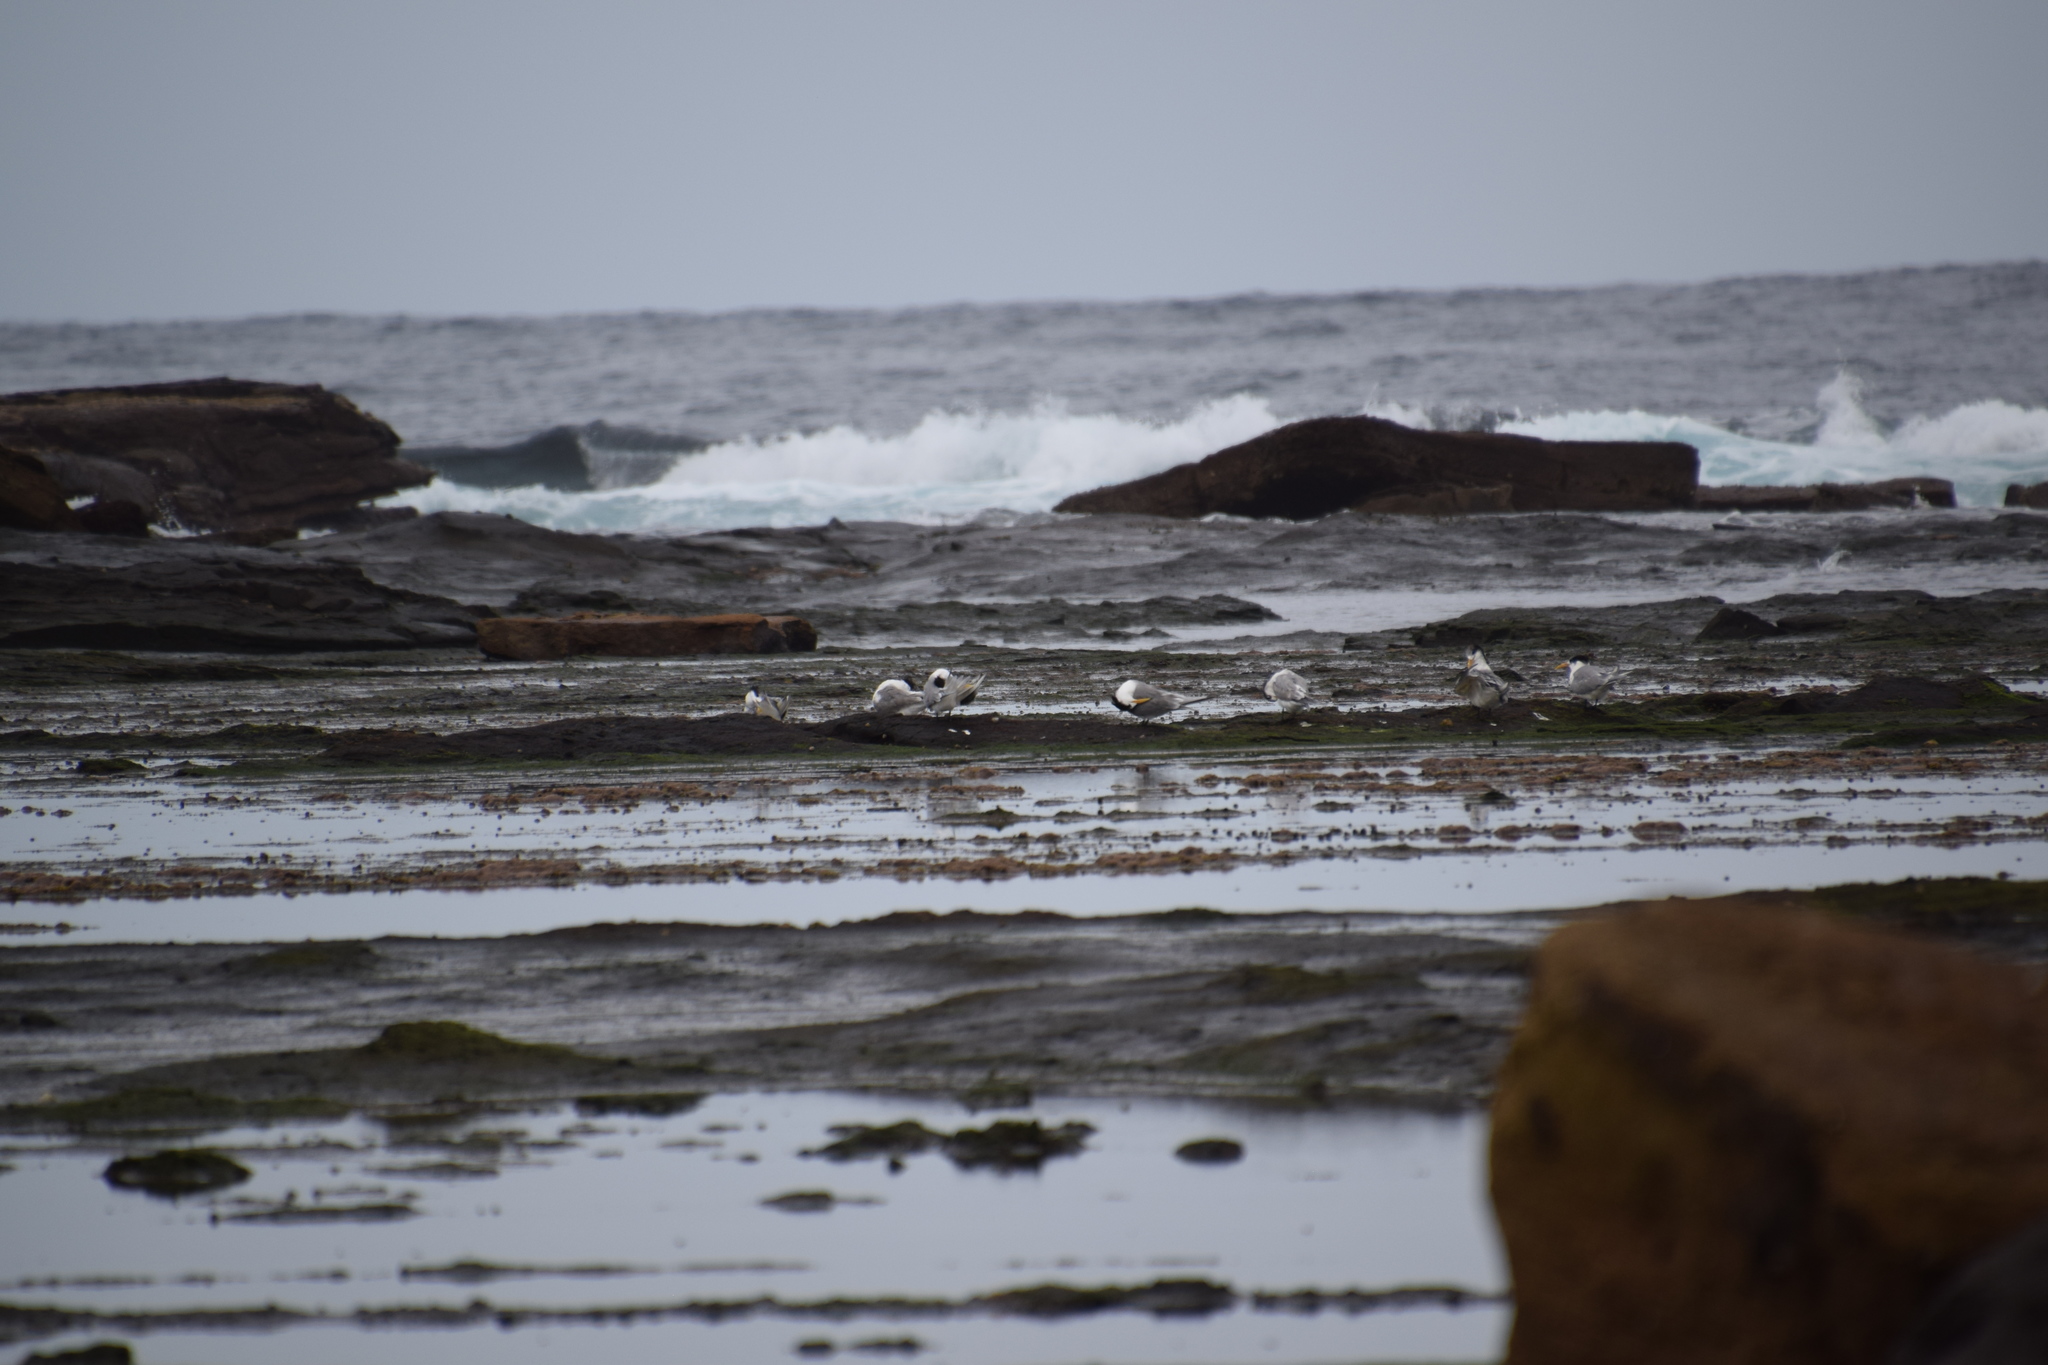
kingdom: Animalia
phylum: Chordata
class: Aves
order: Charadriiformes
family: Laridae
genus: Thalasseus
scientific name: Thalasseus bergii
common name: Greater crested tern
